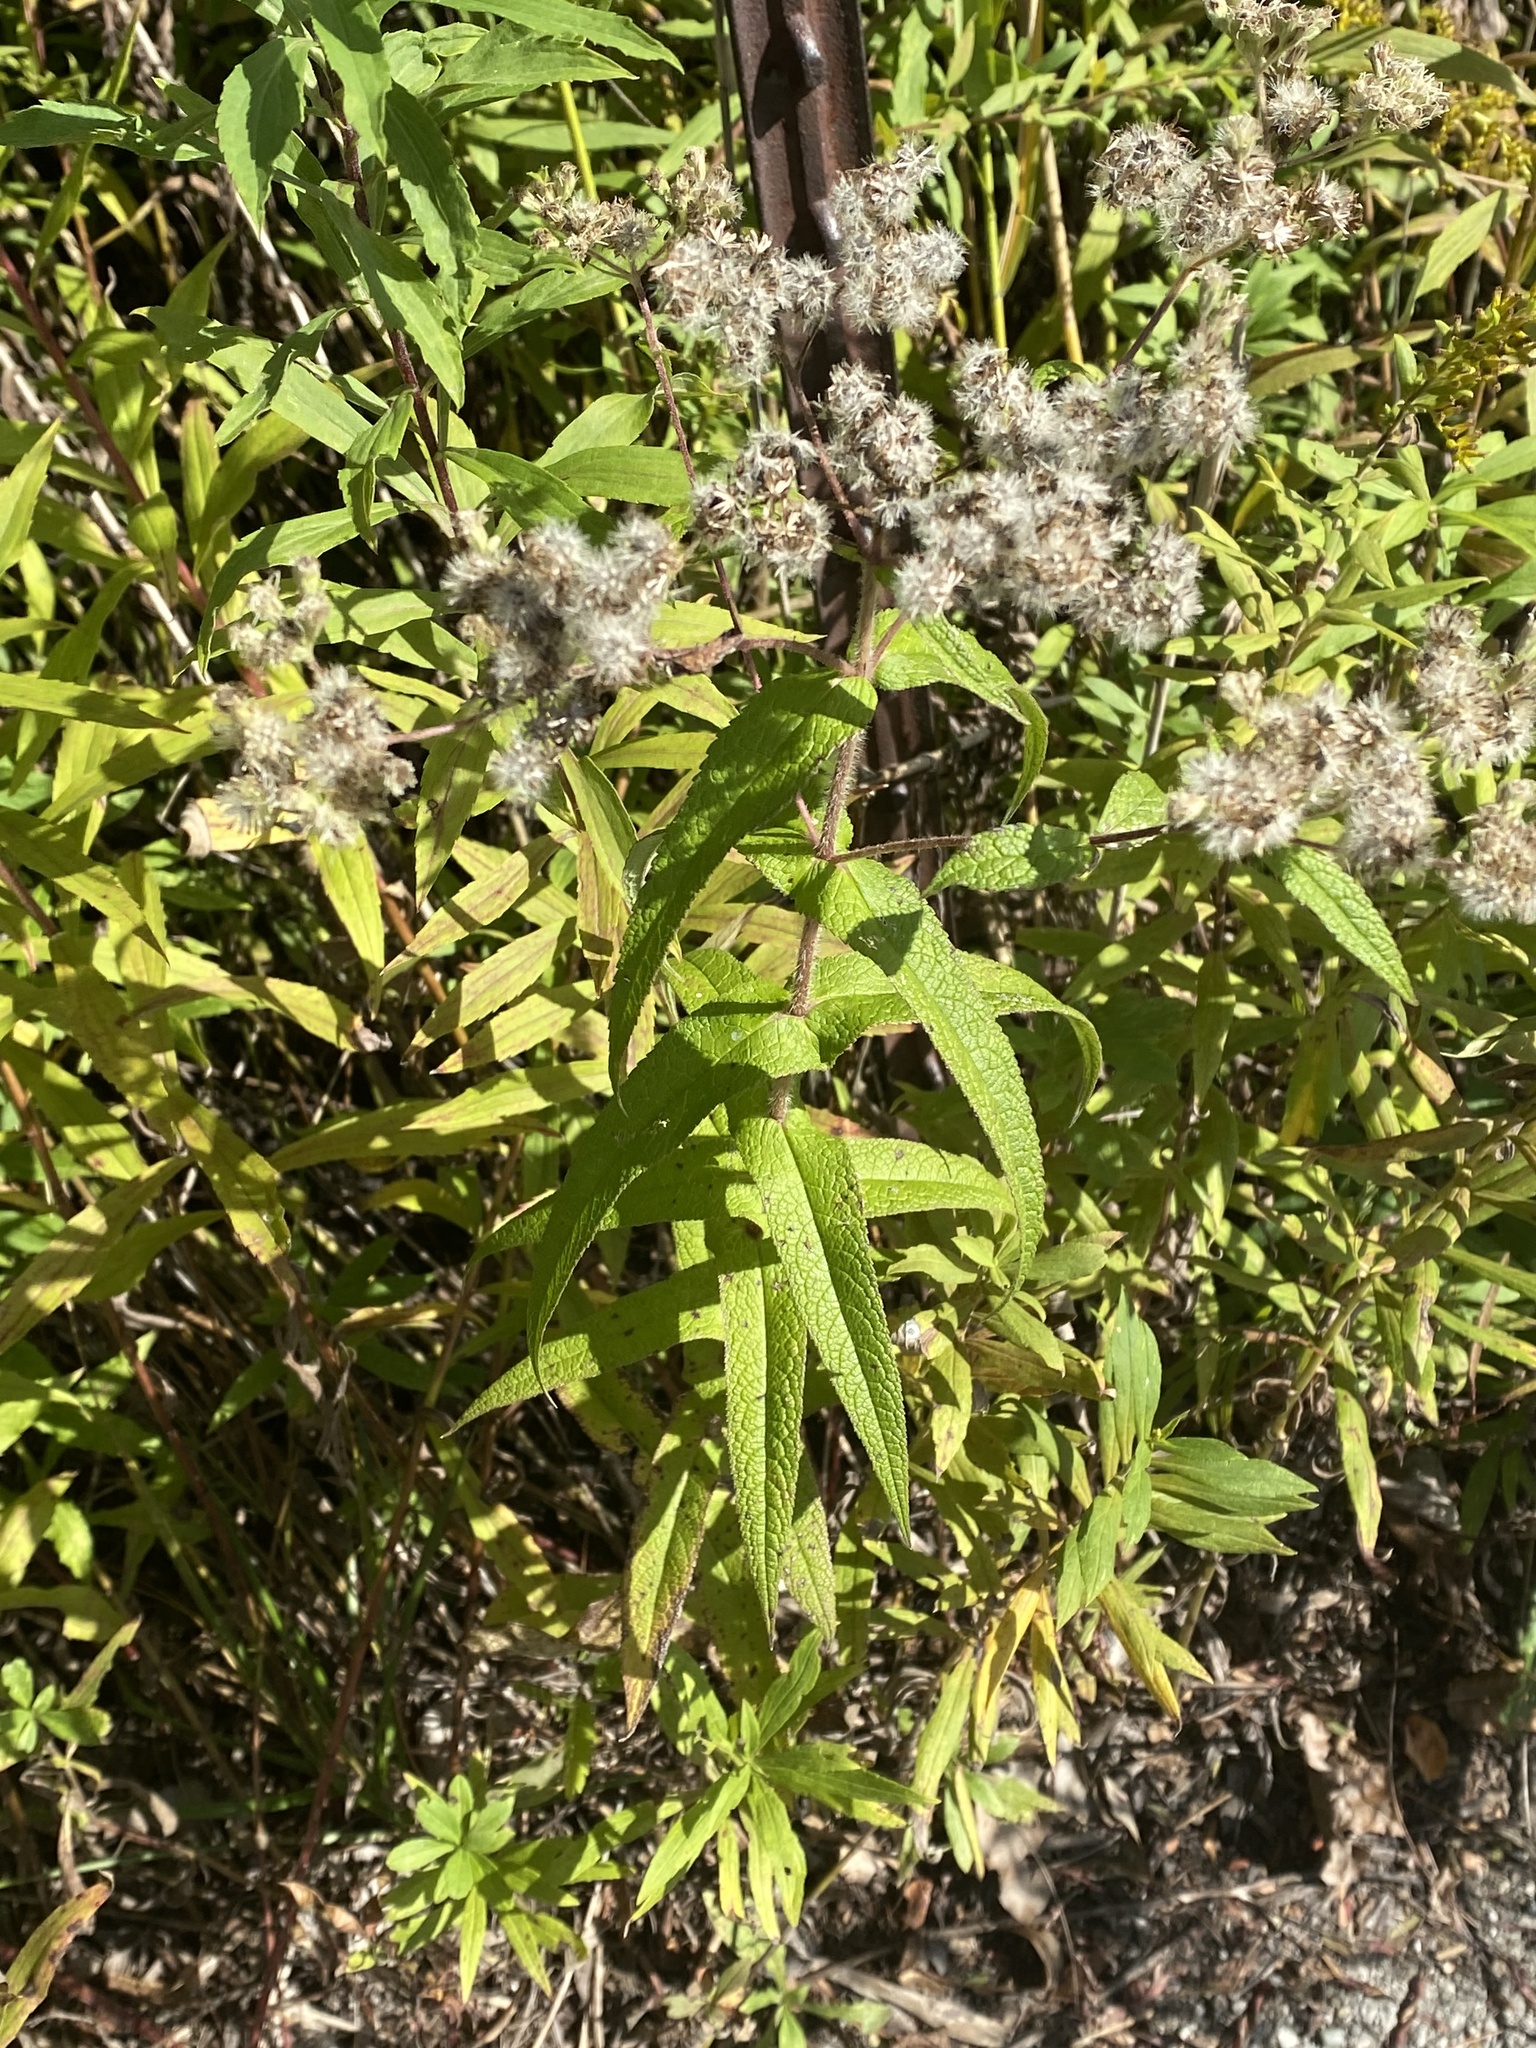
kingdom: Plantae
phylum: Tracheophyta
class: Magnoliopsida
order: Asterales
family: Asteraceae
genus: Eupatorium
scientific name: Eupatorium perfoliatum
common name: Boneset
